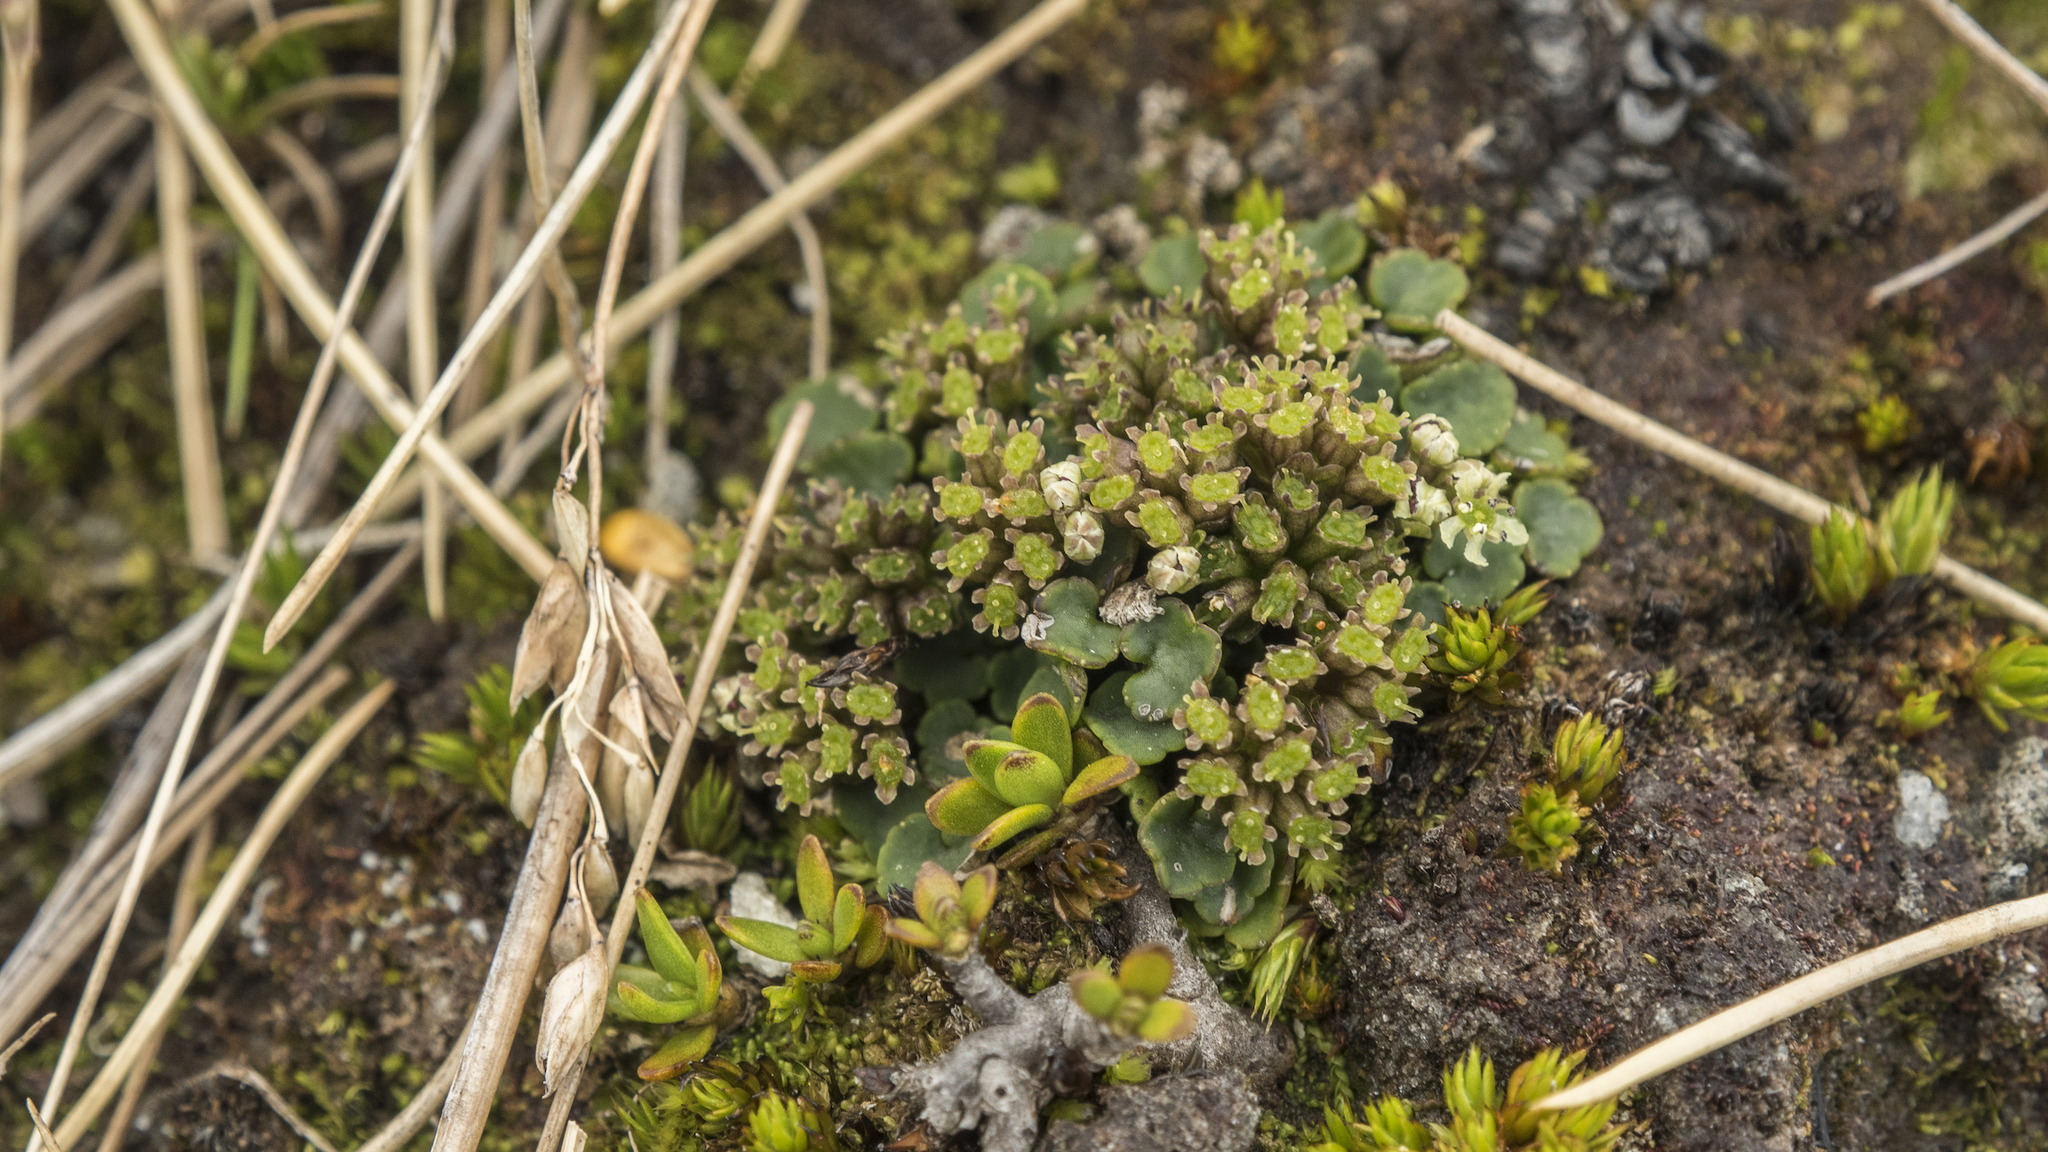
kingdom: Plantae
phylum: Tracheophyta
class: Magnoliopsida
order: Apiales
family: Apiaceae
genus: Azorella
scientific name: Azorella exigua
